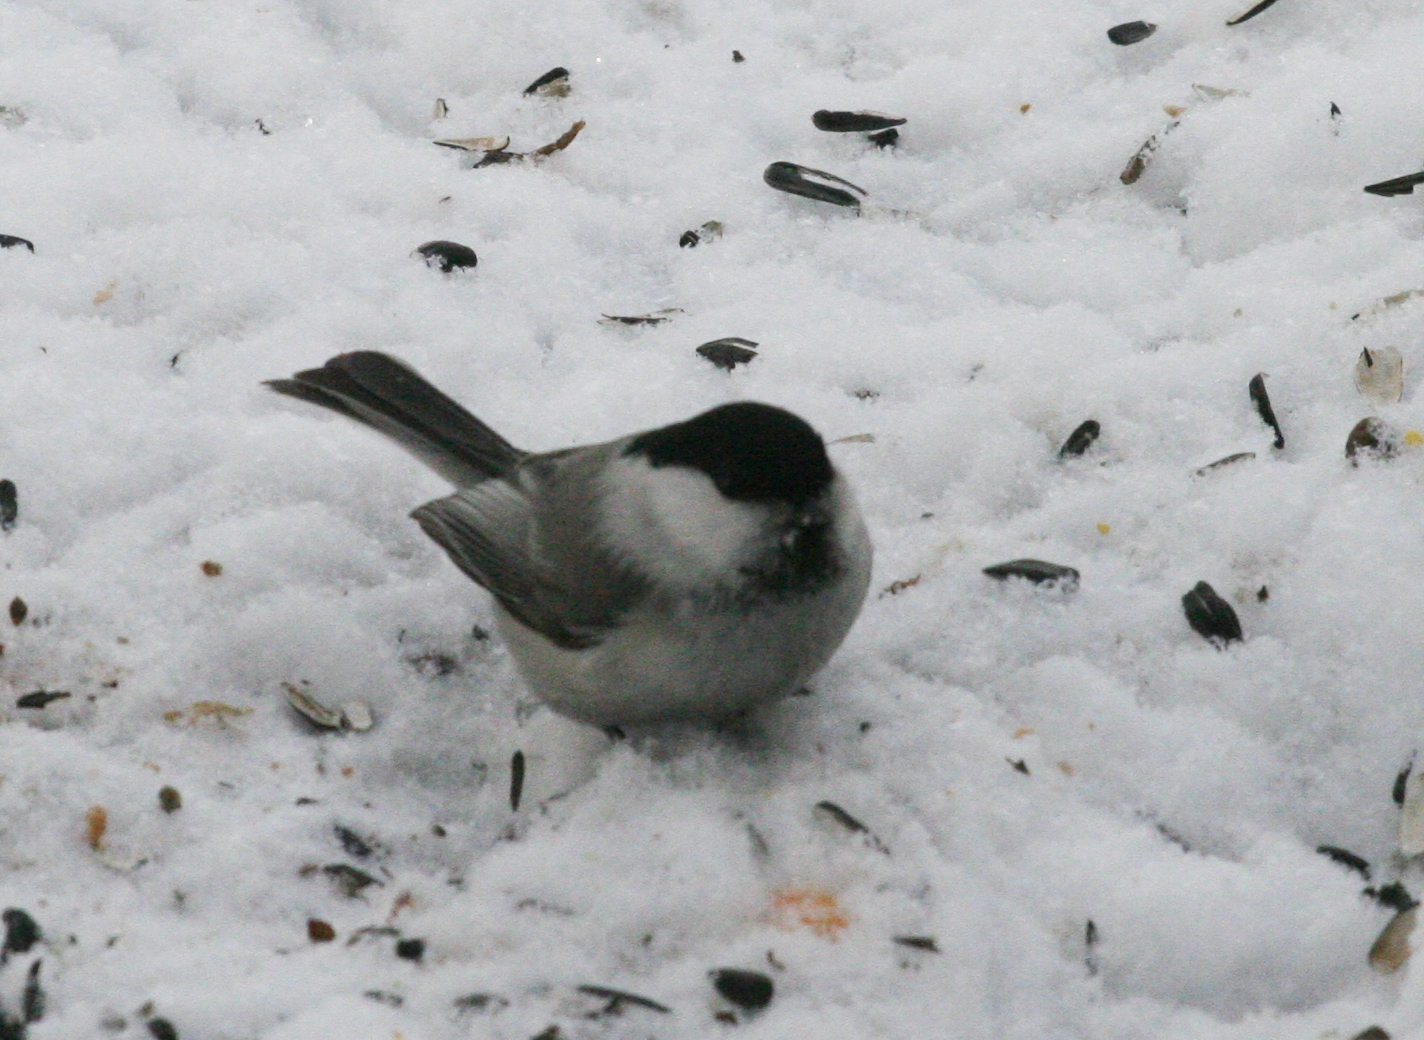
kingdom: Animalia
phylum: Chordata
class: Aves
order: Passeriformes
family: Paridae
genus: Poecile
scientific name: Poecile montanus
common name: Willow tit
